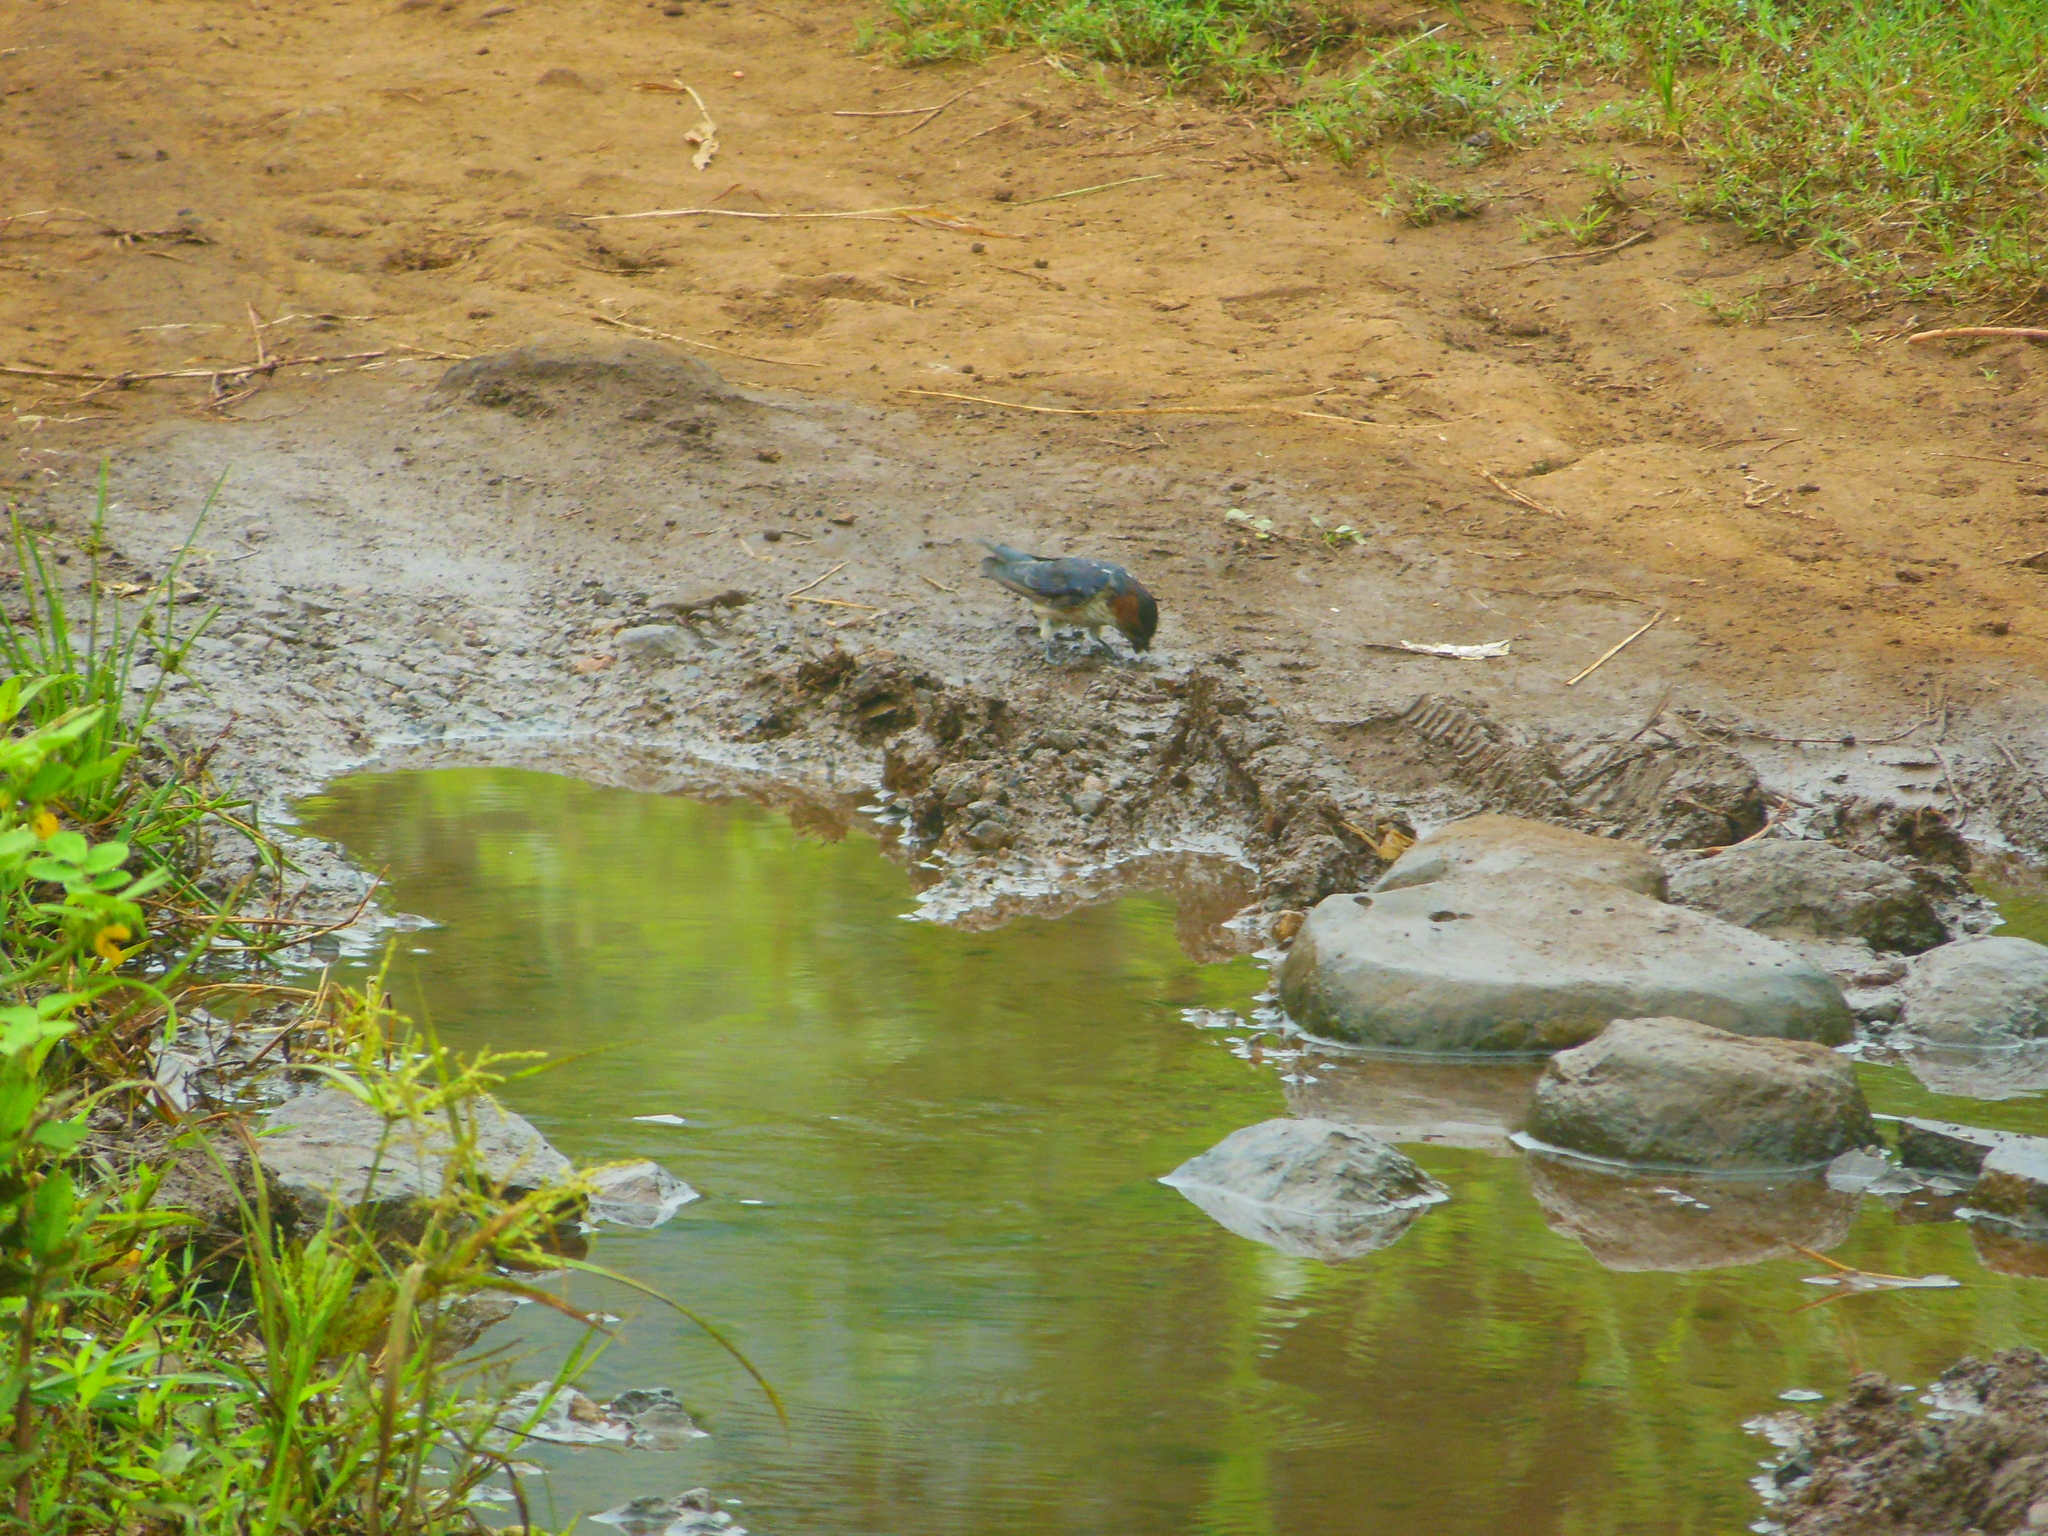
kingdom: Animalia
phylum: Chordata
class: Aves
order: Passeriformes
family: Hirundinidae
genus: Cecropis
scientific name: Cecropis daurica
